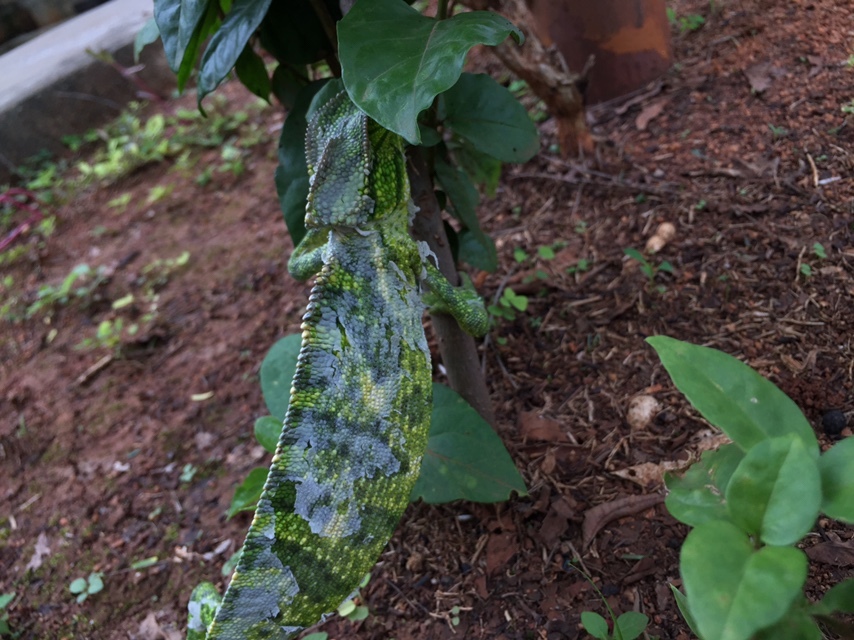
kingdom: Animalia
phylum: Chordata
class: Squamata
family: Chamaeleonidae
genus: Chamaeleo
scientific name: Chamaeleo zeylanicus
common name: Indian chameleon
